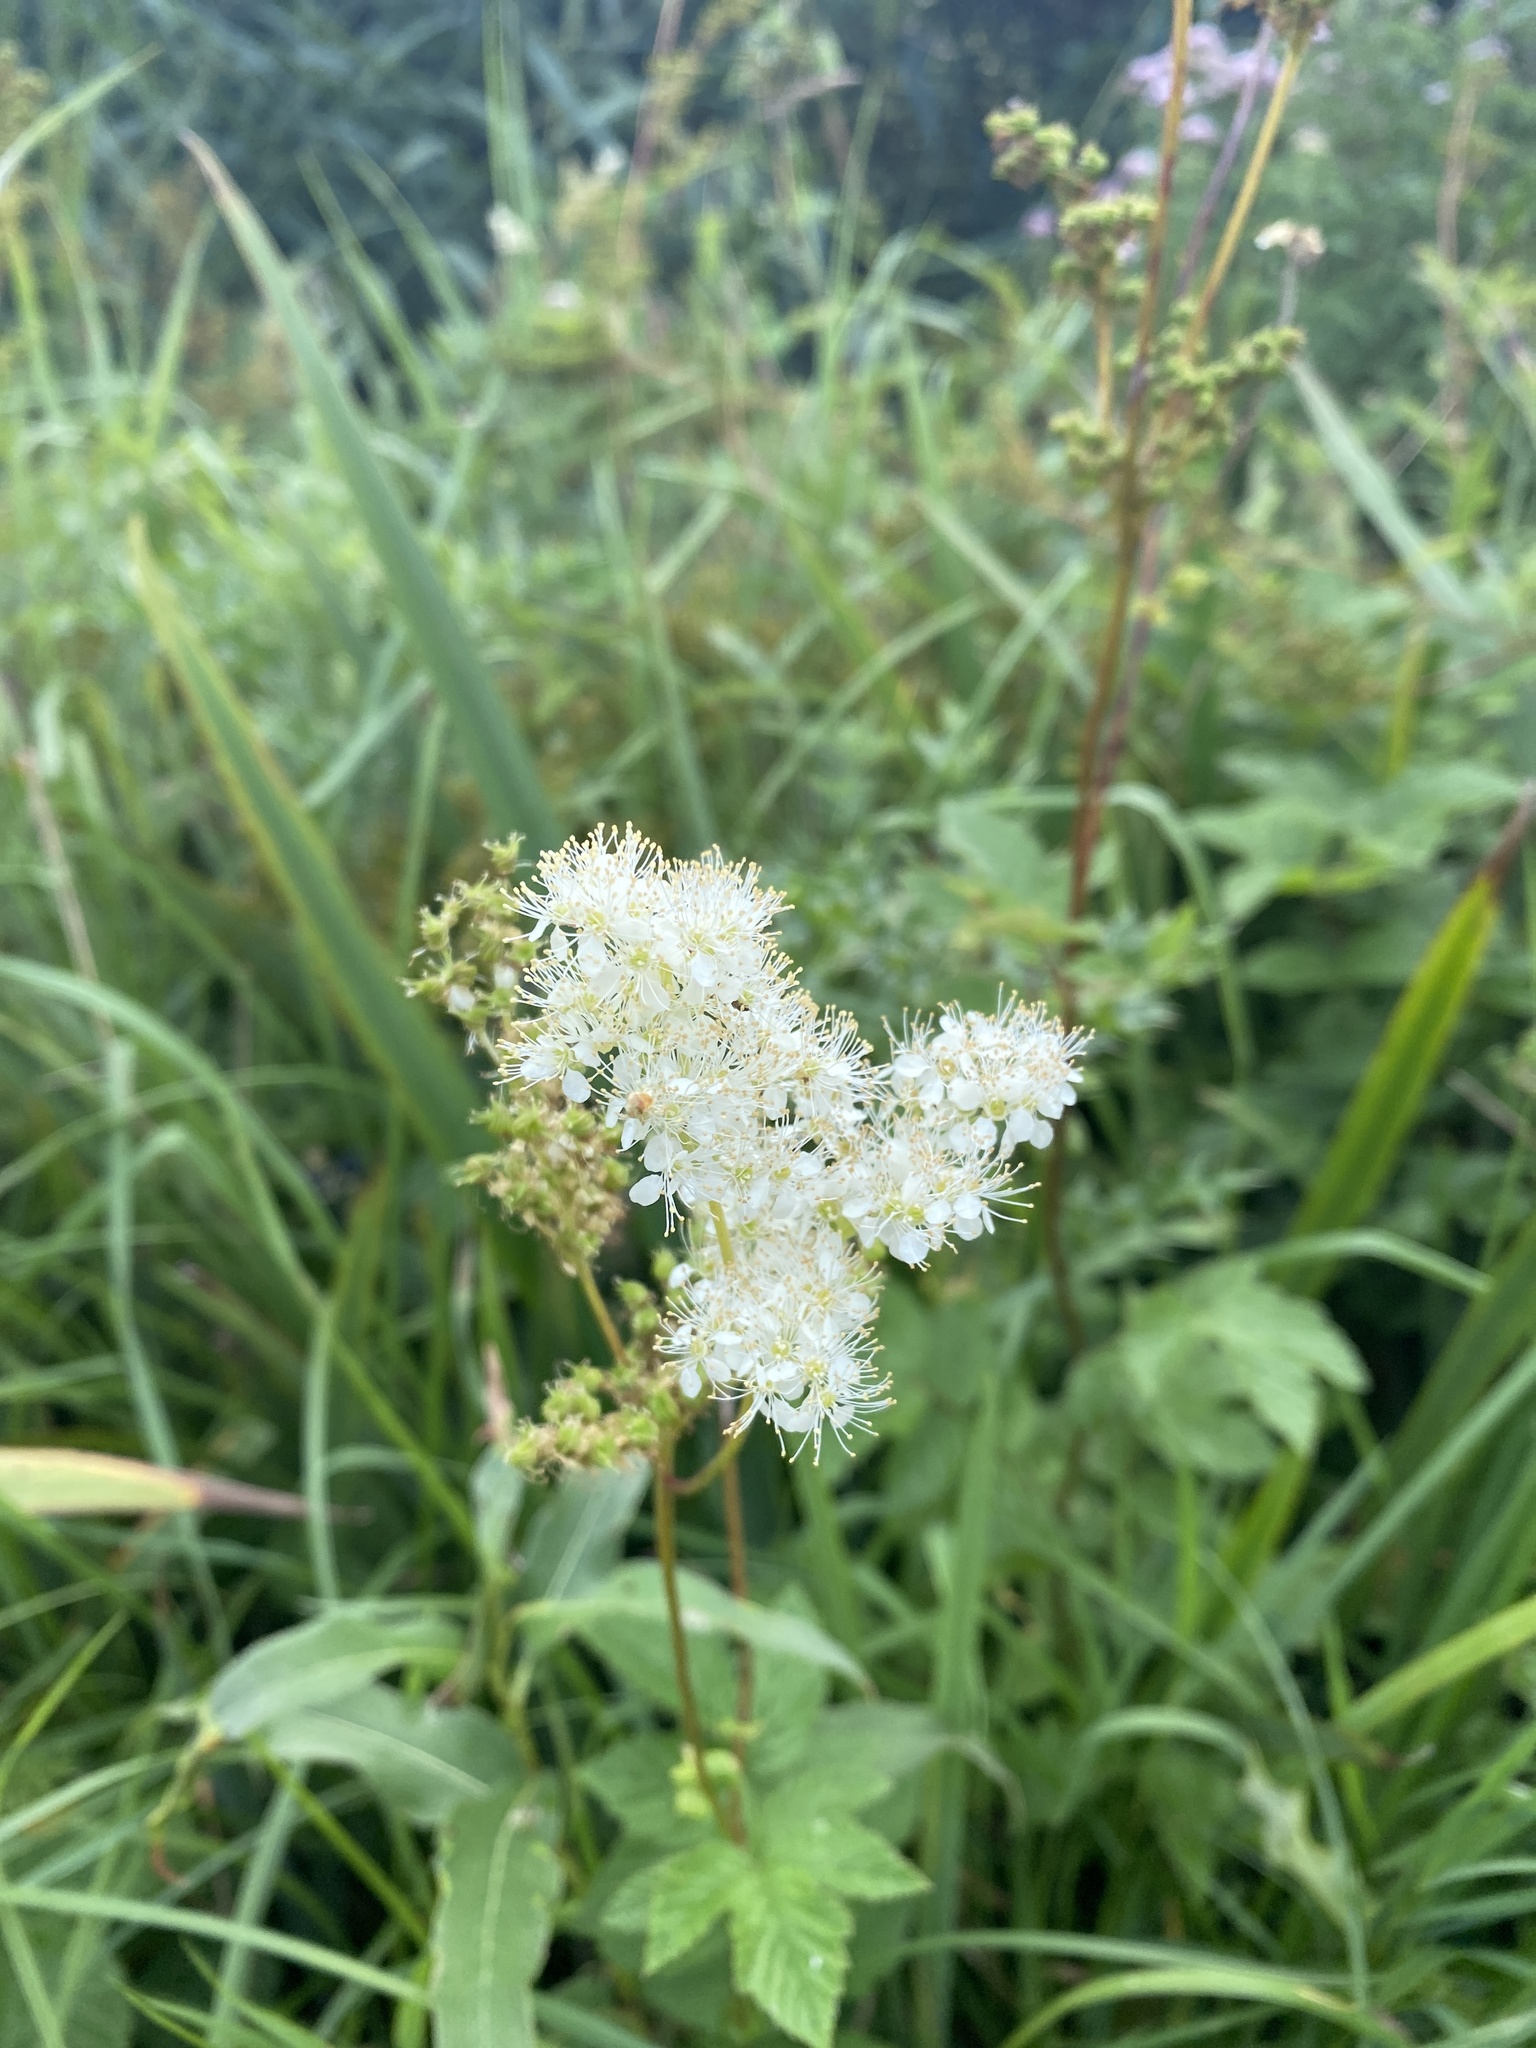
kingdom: Plantae
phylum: Tracheophyta
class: Magnoliopsida
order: Rosales
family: Rosaceae
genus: Filipendula
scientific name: Filipendula ulmaria
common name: Meadowsweet
